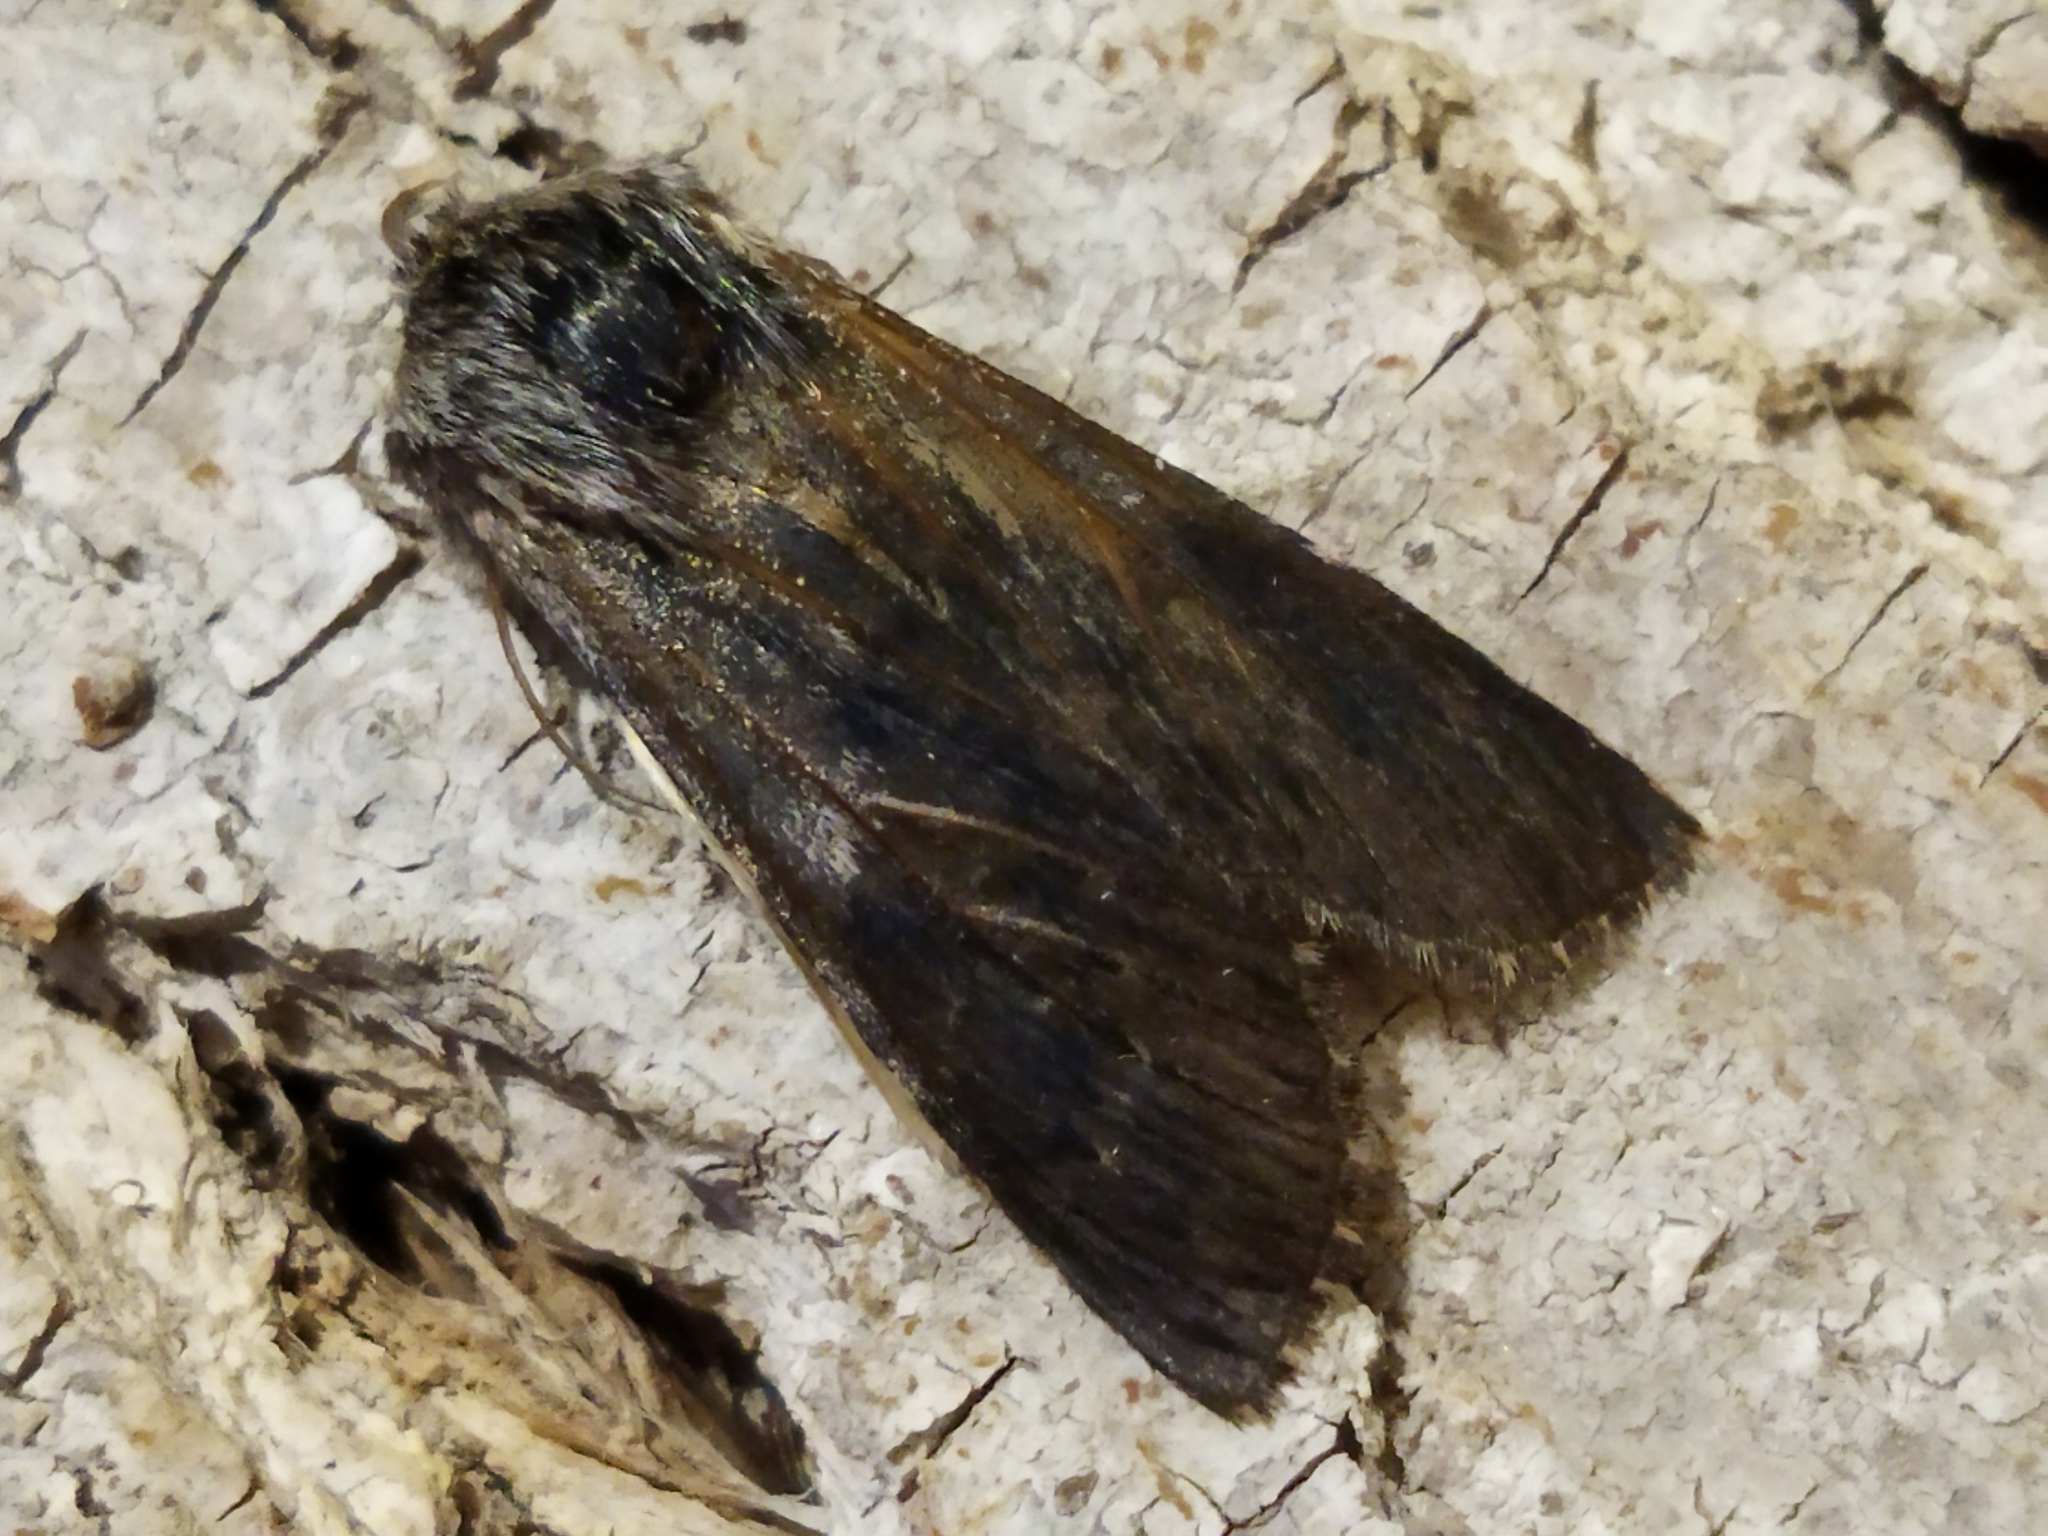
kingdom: Animalia
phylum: Arthropoda
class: Insecta
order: Lepidoptera
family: Notodontidae
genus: Dicranura
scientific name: Dicranura ulmi
